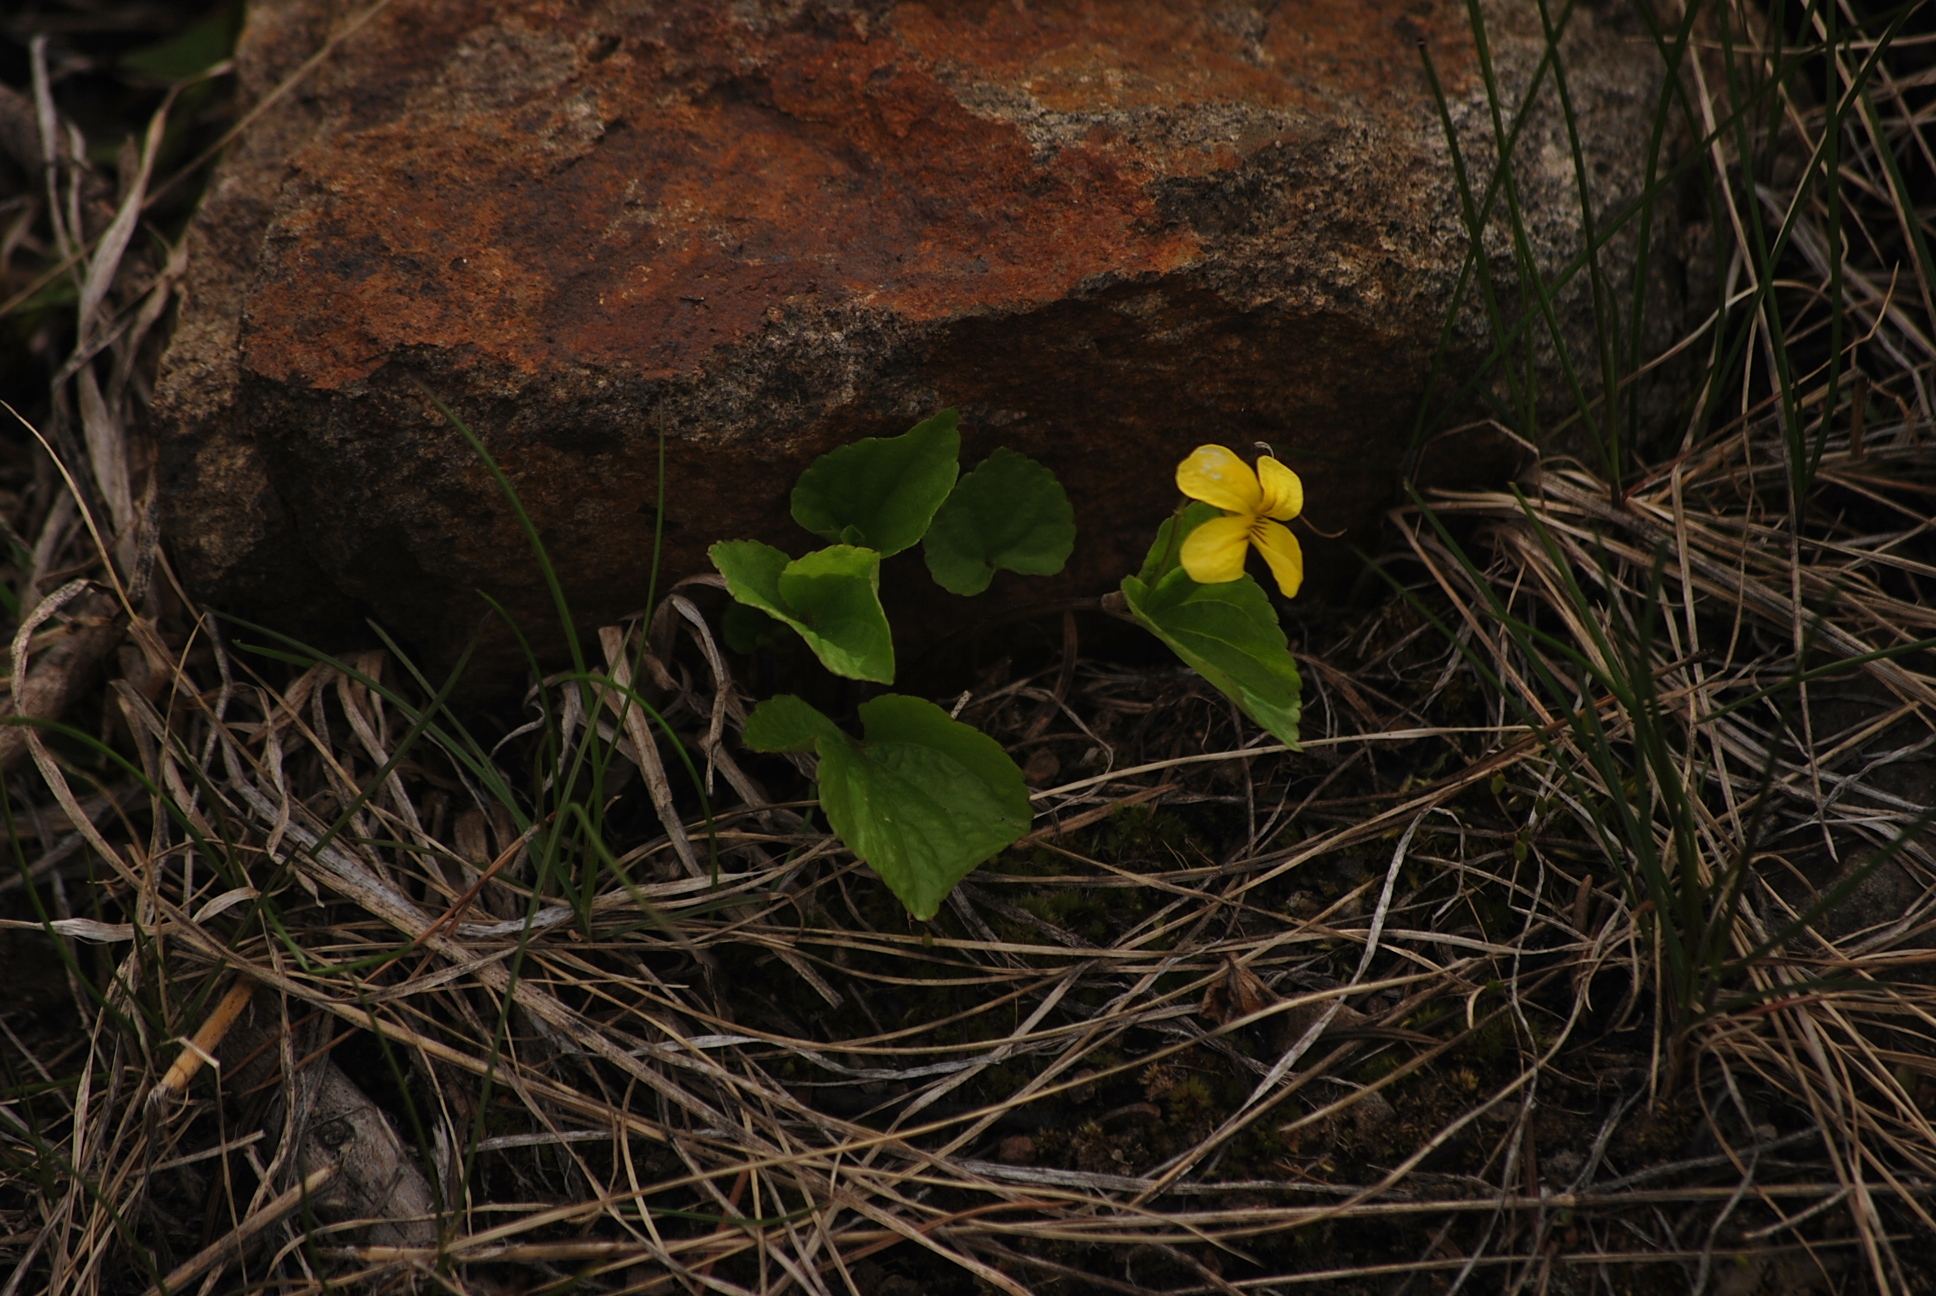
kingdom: Plantae
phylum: Tracheophyta
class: Magnoliopsida
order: Malpighiales
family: Violaceae
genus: Viola
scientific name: Viola glabella
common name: Stream violet
